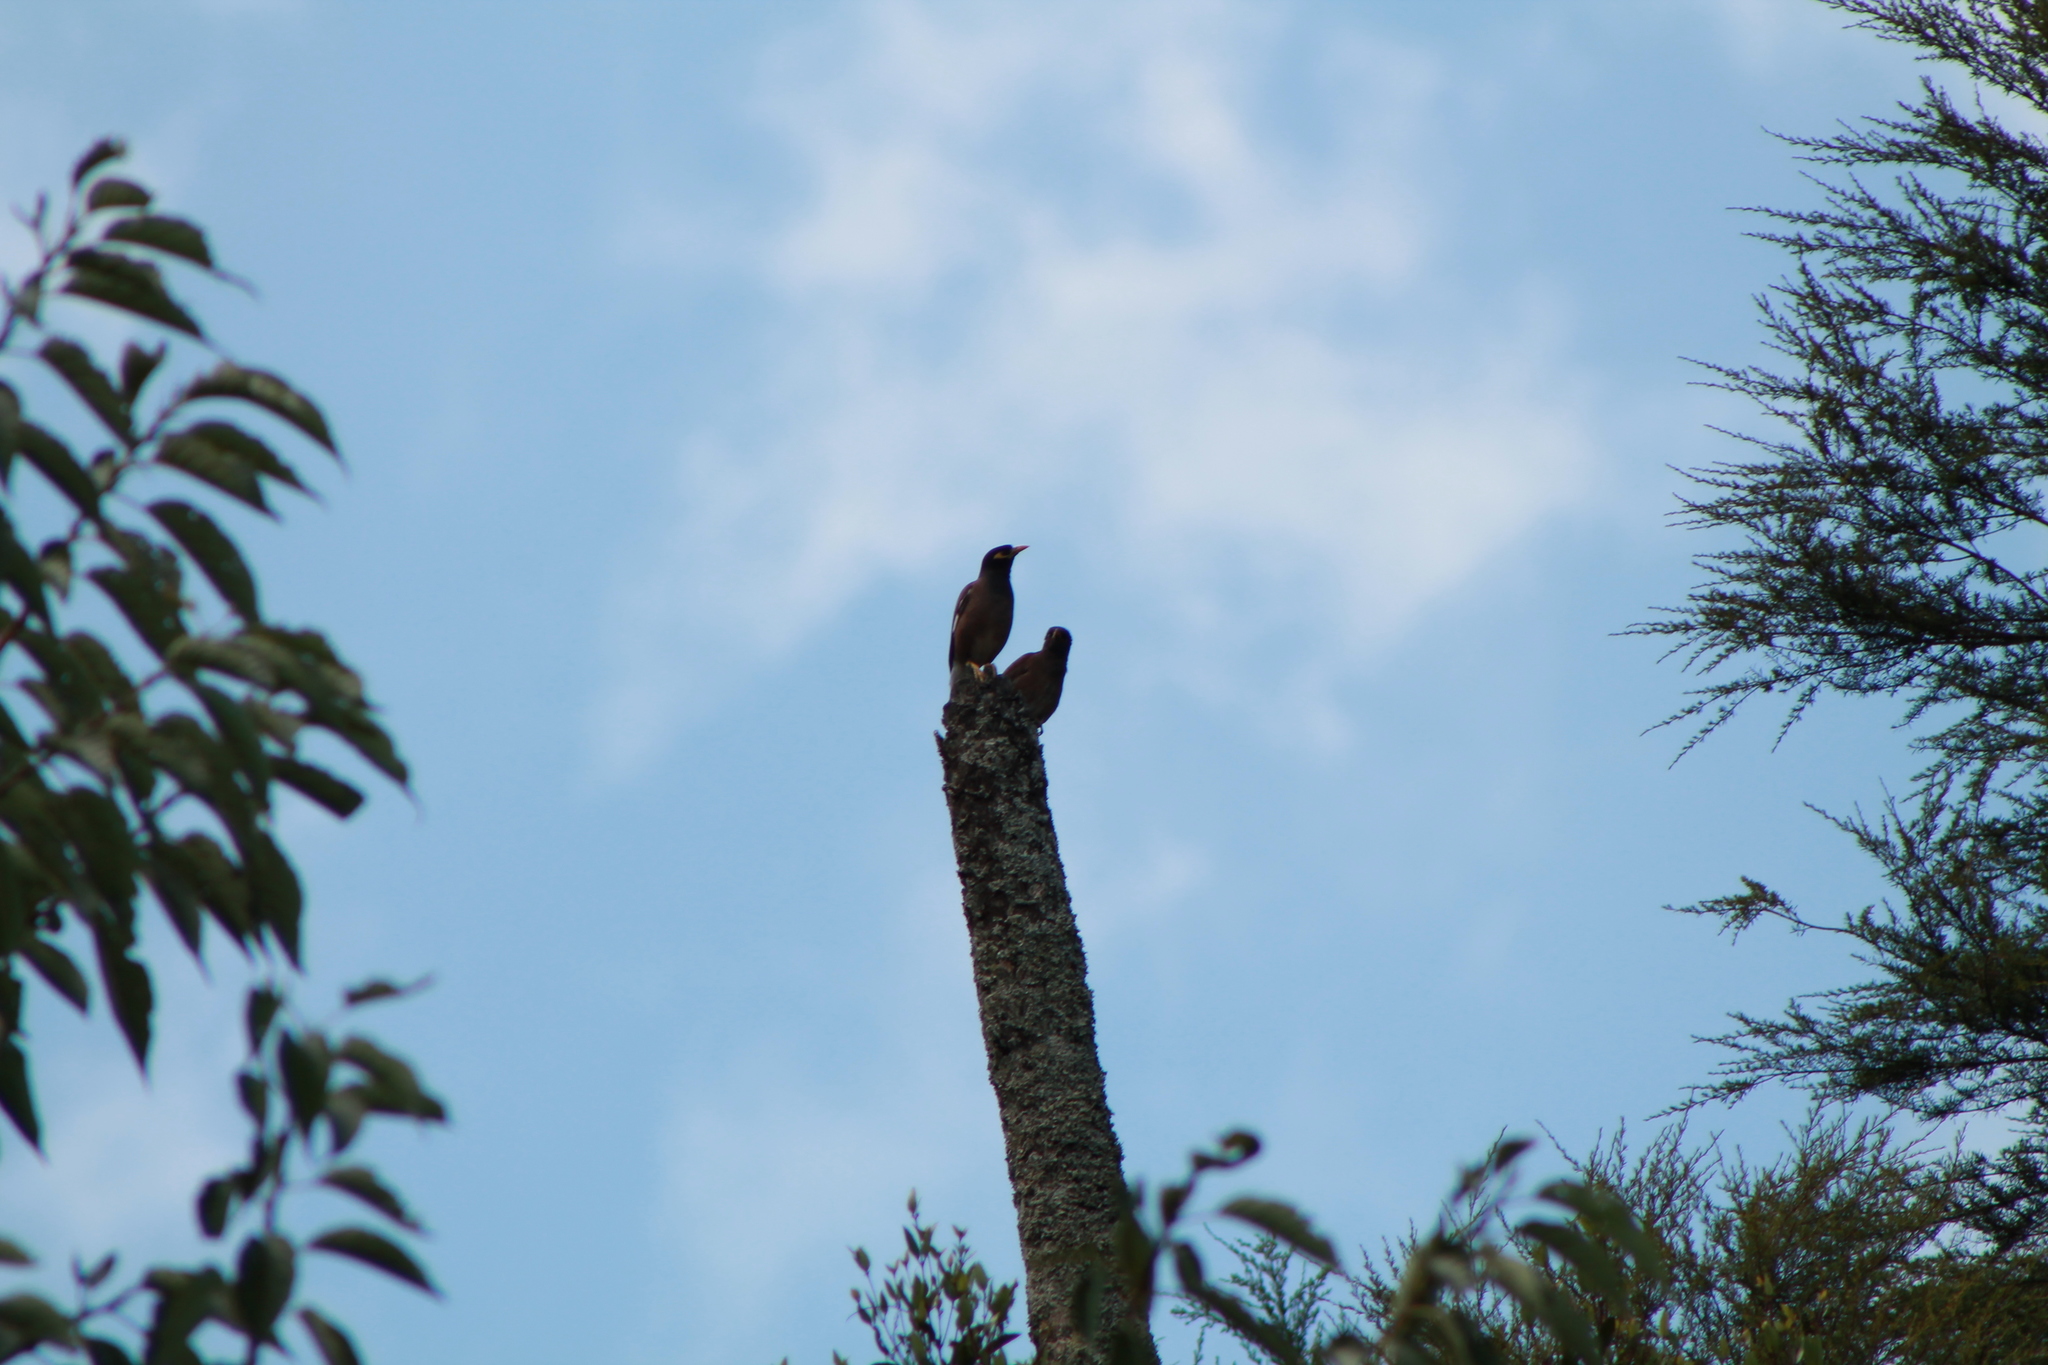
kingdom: Animalia
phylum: Chordata
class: Aves
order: Passeriformes
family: Sturnidae
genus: Acridotheres
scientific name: Acridotheres tristis
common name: Common myna
